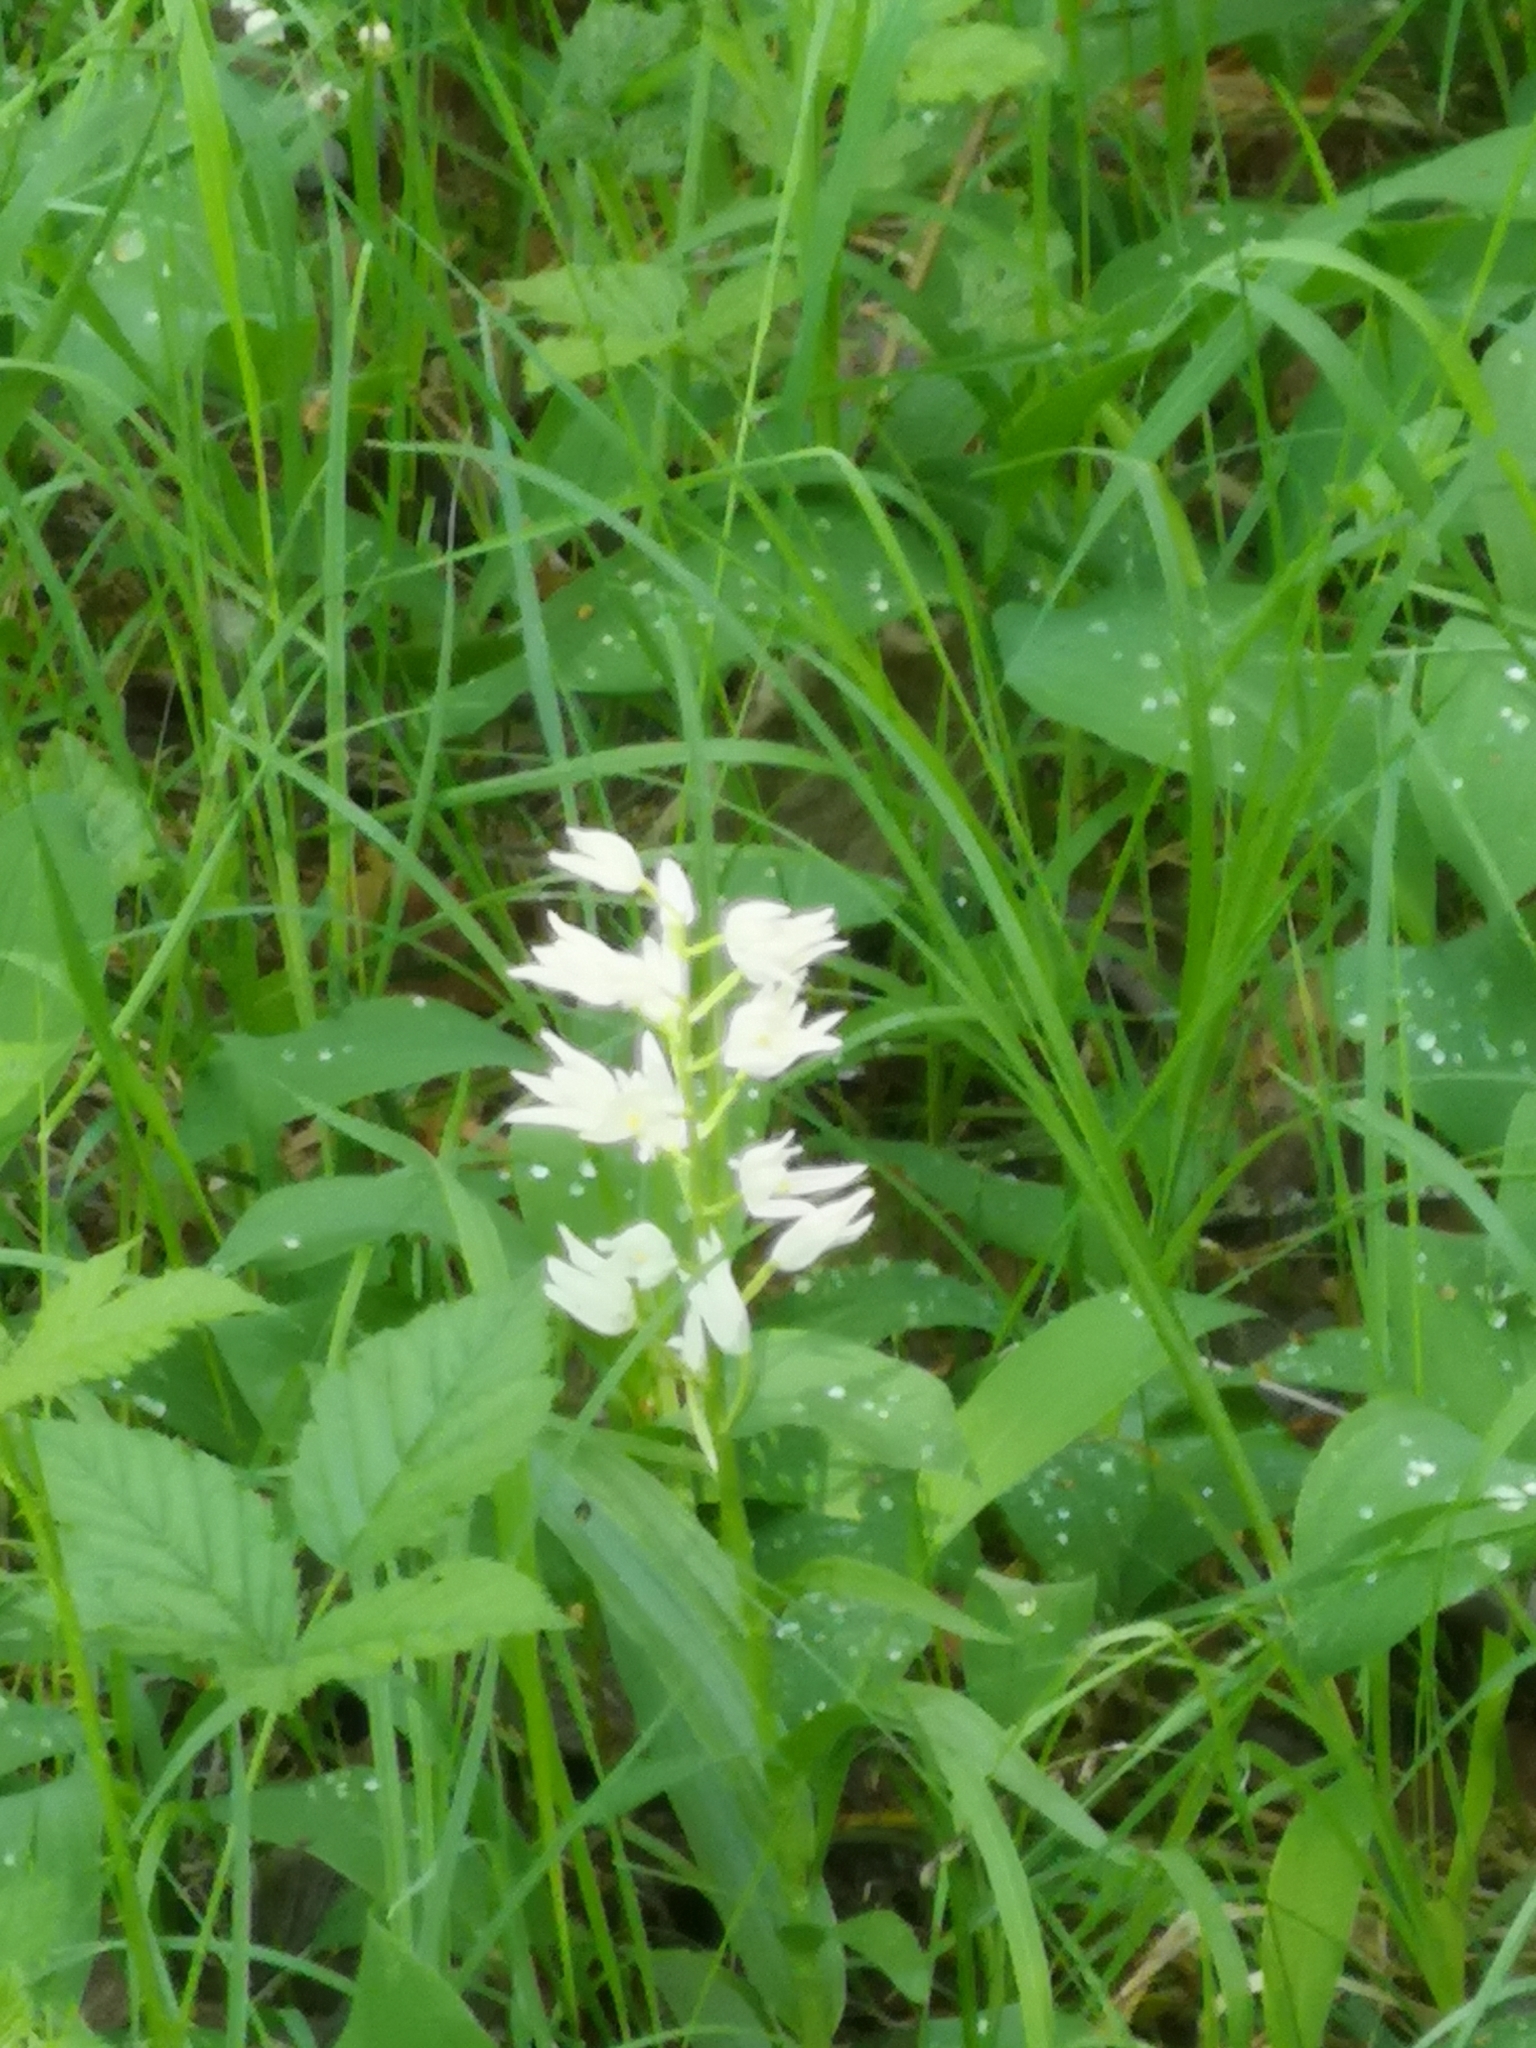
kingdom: Plantae
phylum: Tracheophyta
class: Liliopsida
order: Asparagales
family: Orchidaceae
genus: Cephalanthera
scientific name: Cephalanthera longifolia
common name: Narrow-leaved helleborine
